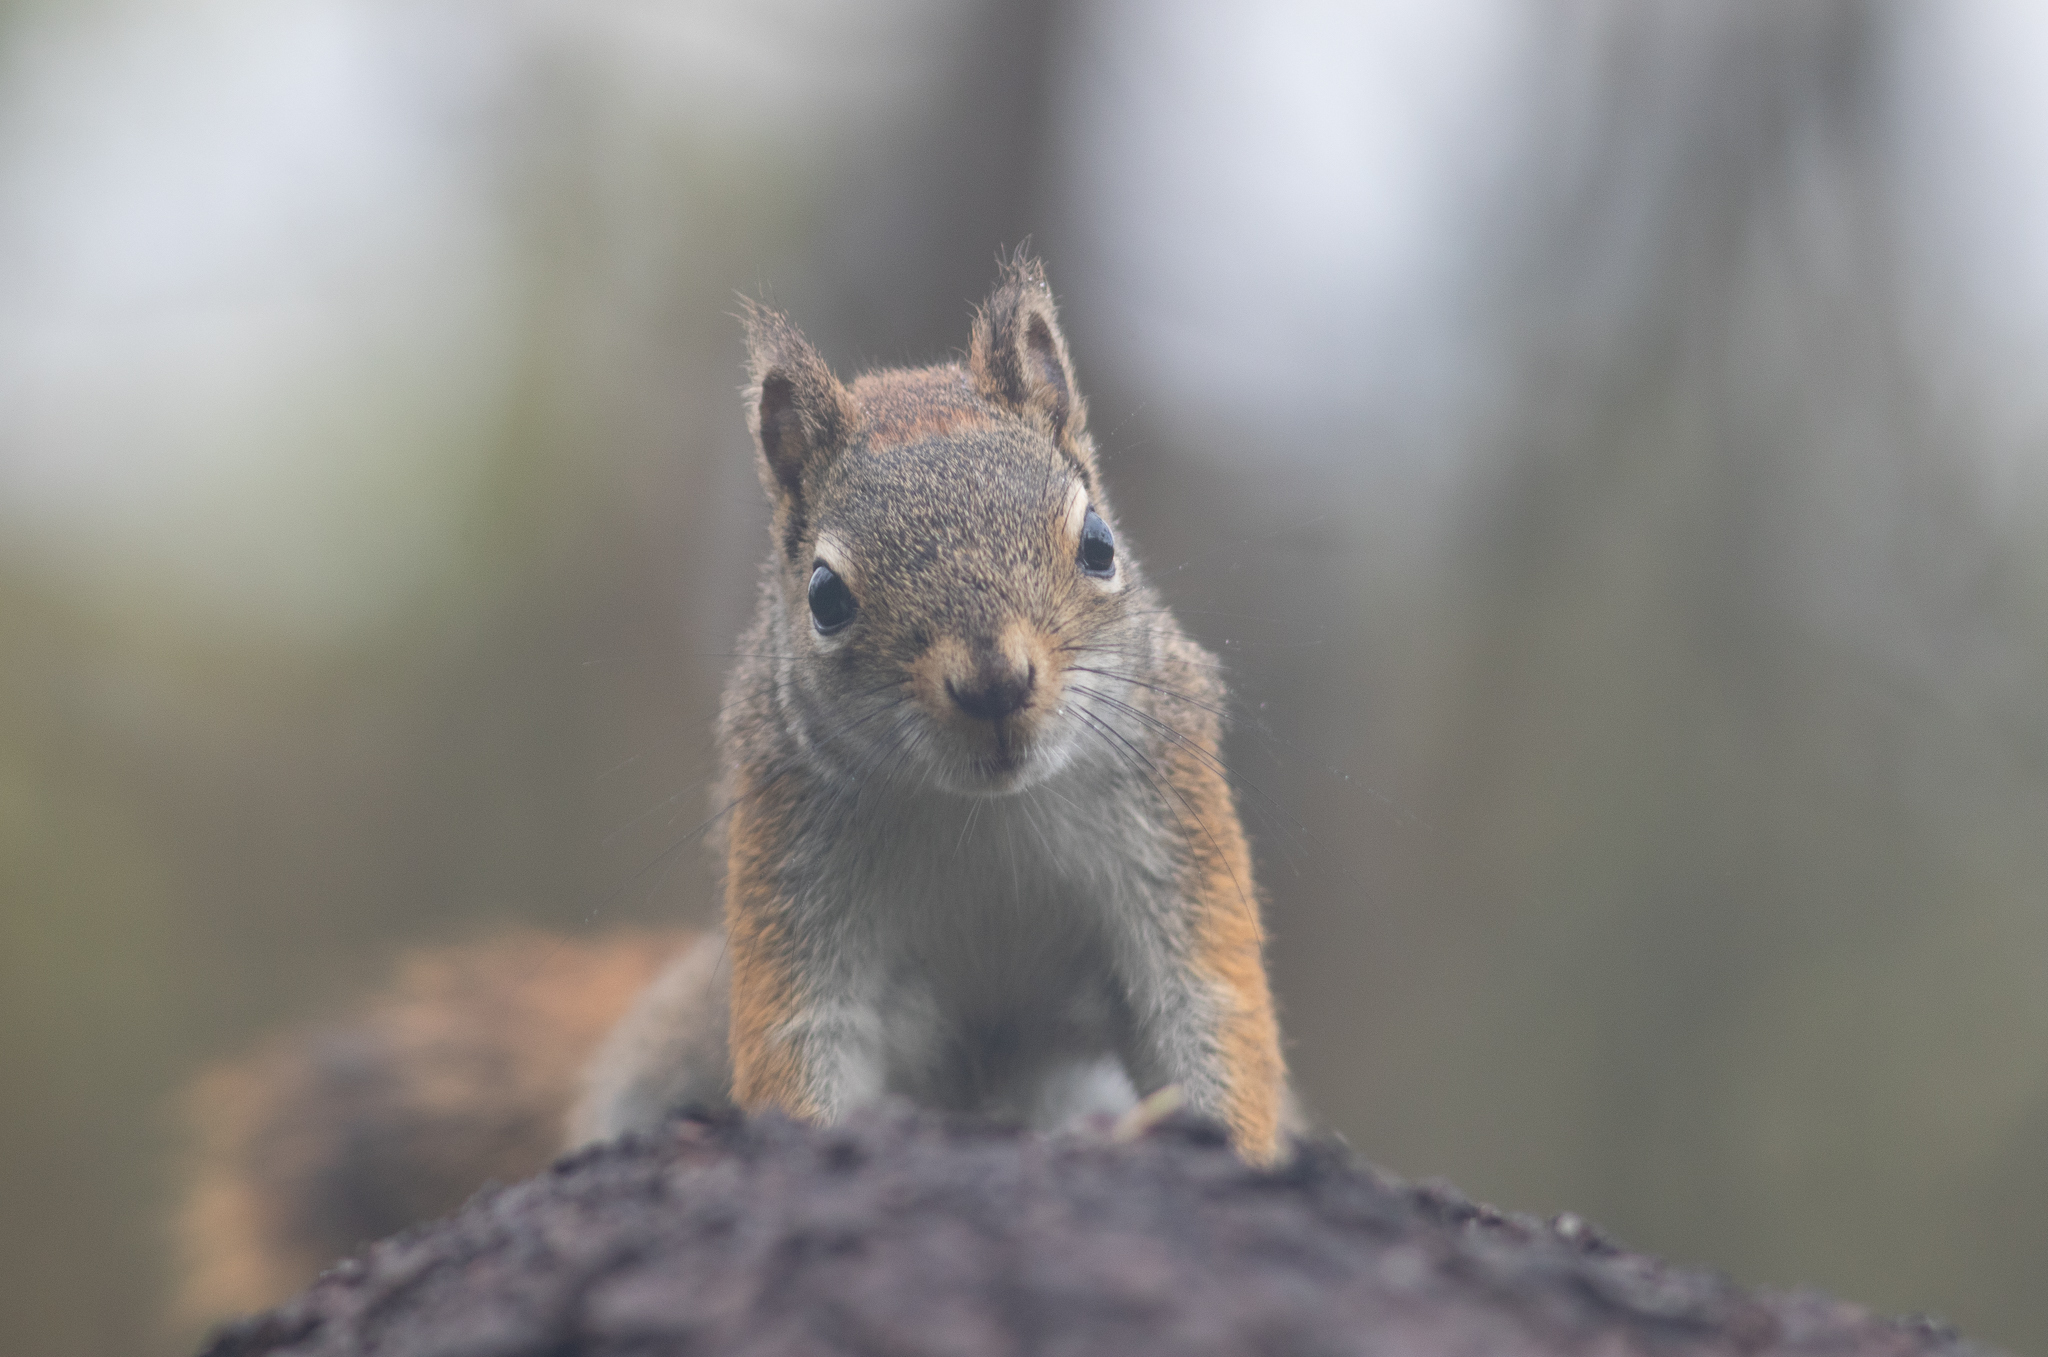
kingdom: Animalia
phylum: Chordata
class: Mammalia
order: Rodentia
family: Sciuridae
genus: Tamiasciurus
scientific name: Tamiasciurus hudsonicus
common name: Red squirrel
